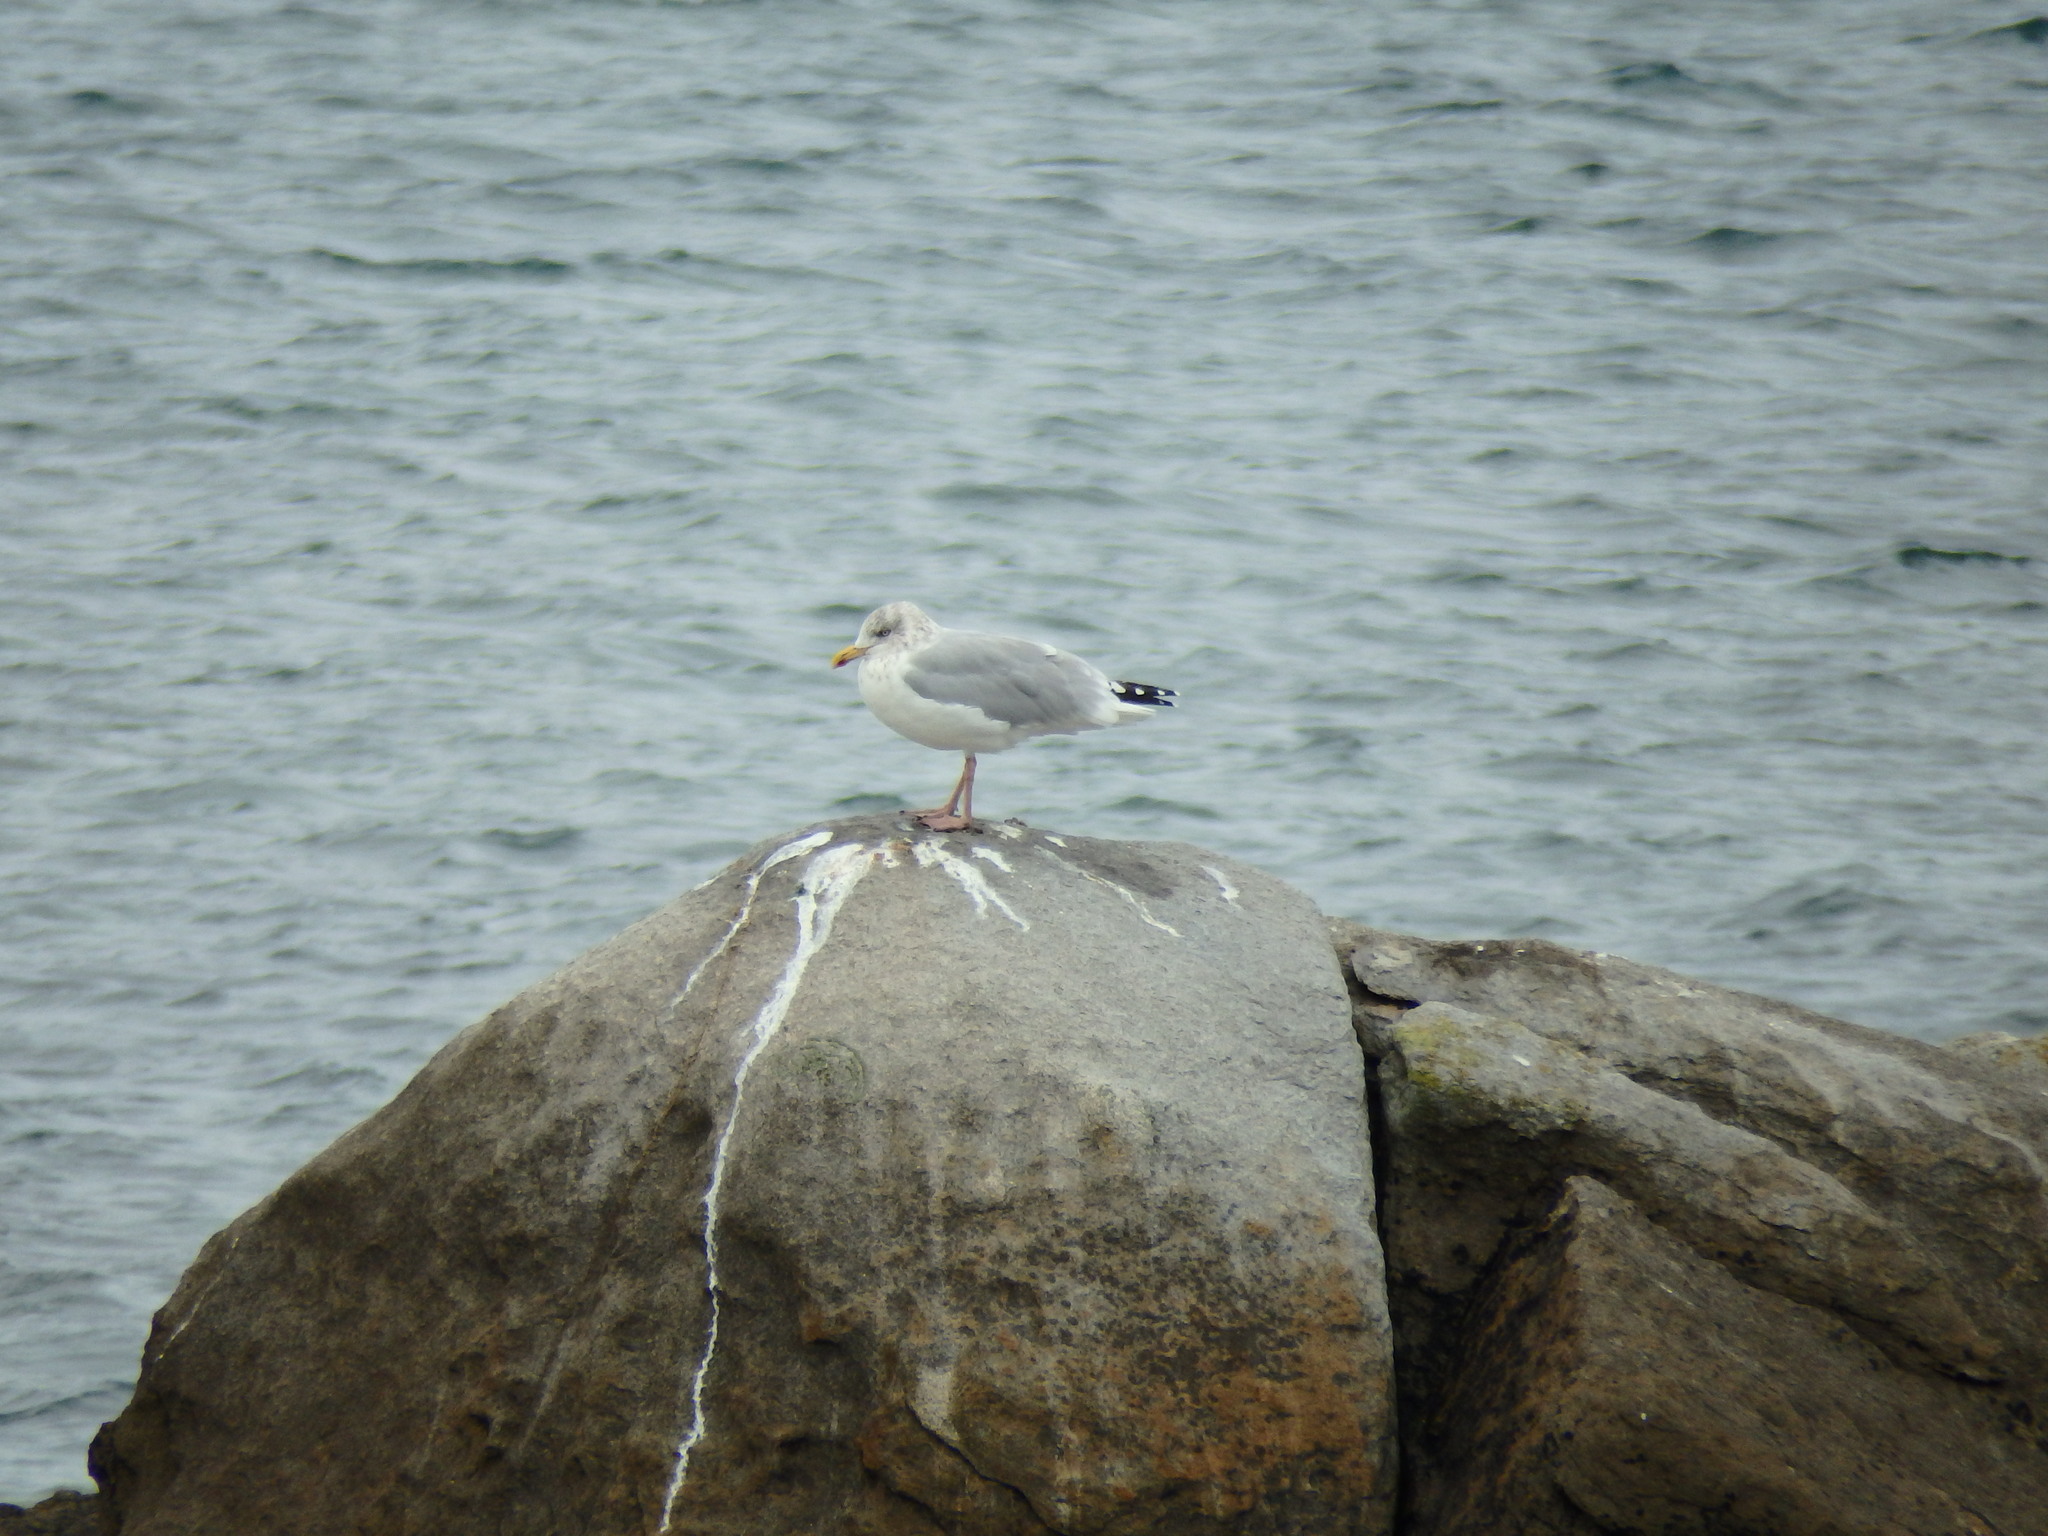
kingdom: Animalia
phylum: Chordata
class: Aves
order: Charadriiformes
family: Laridae
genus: Larus
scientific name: Larus argentatus
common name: Herring gull
